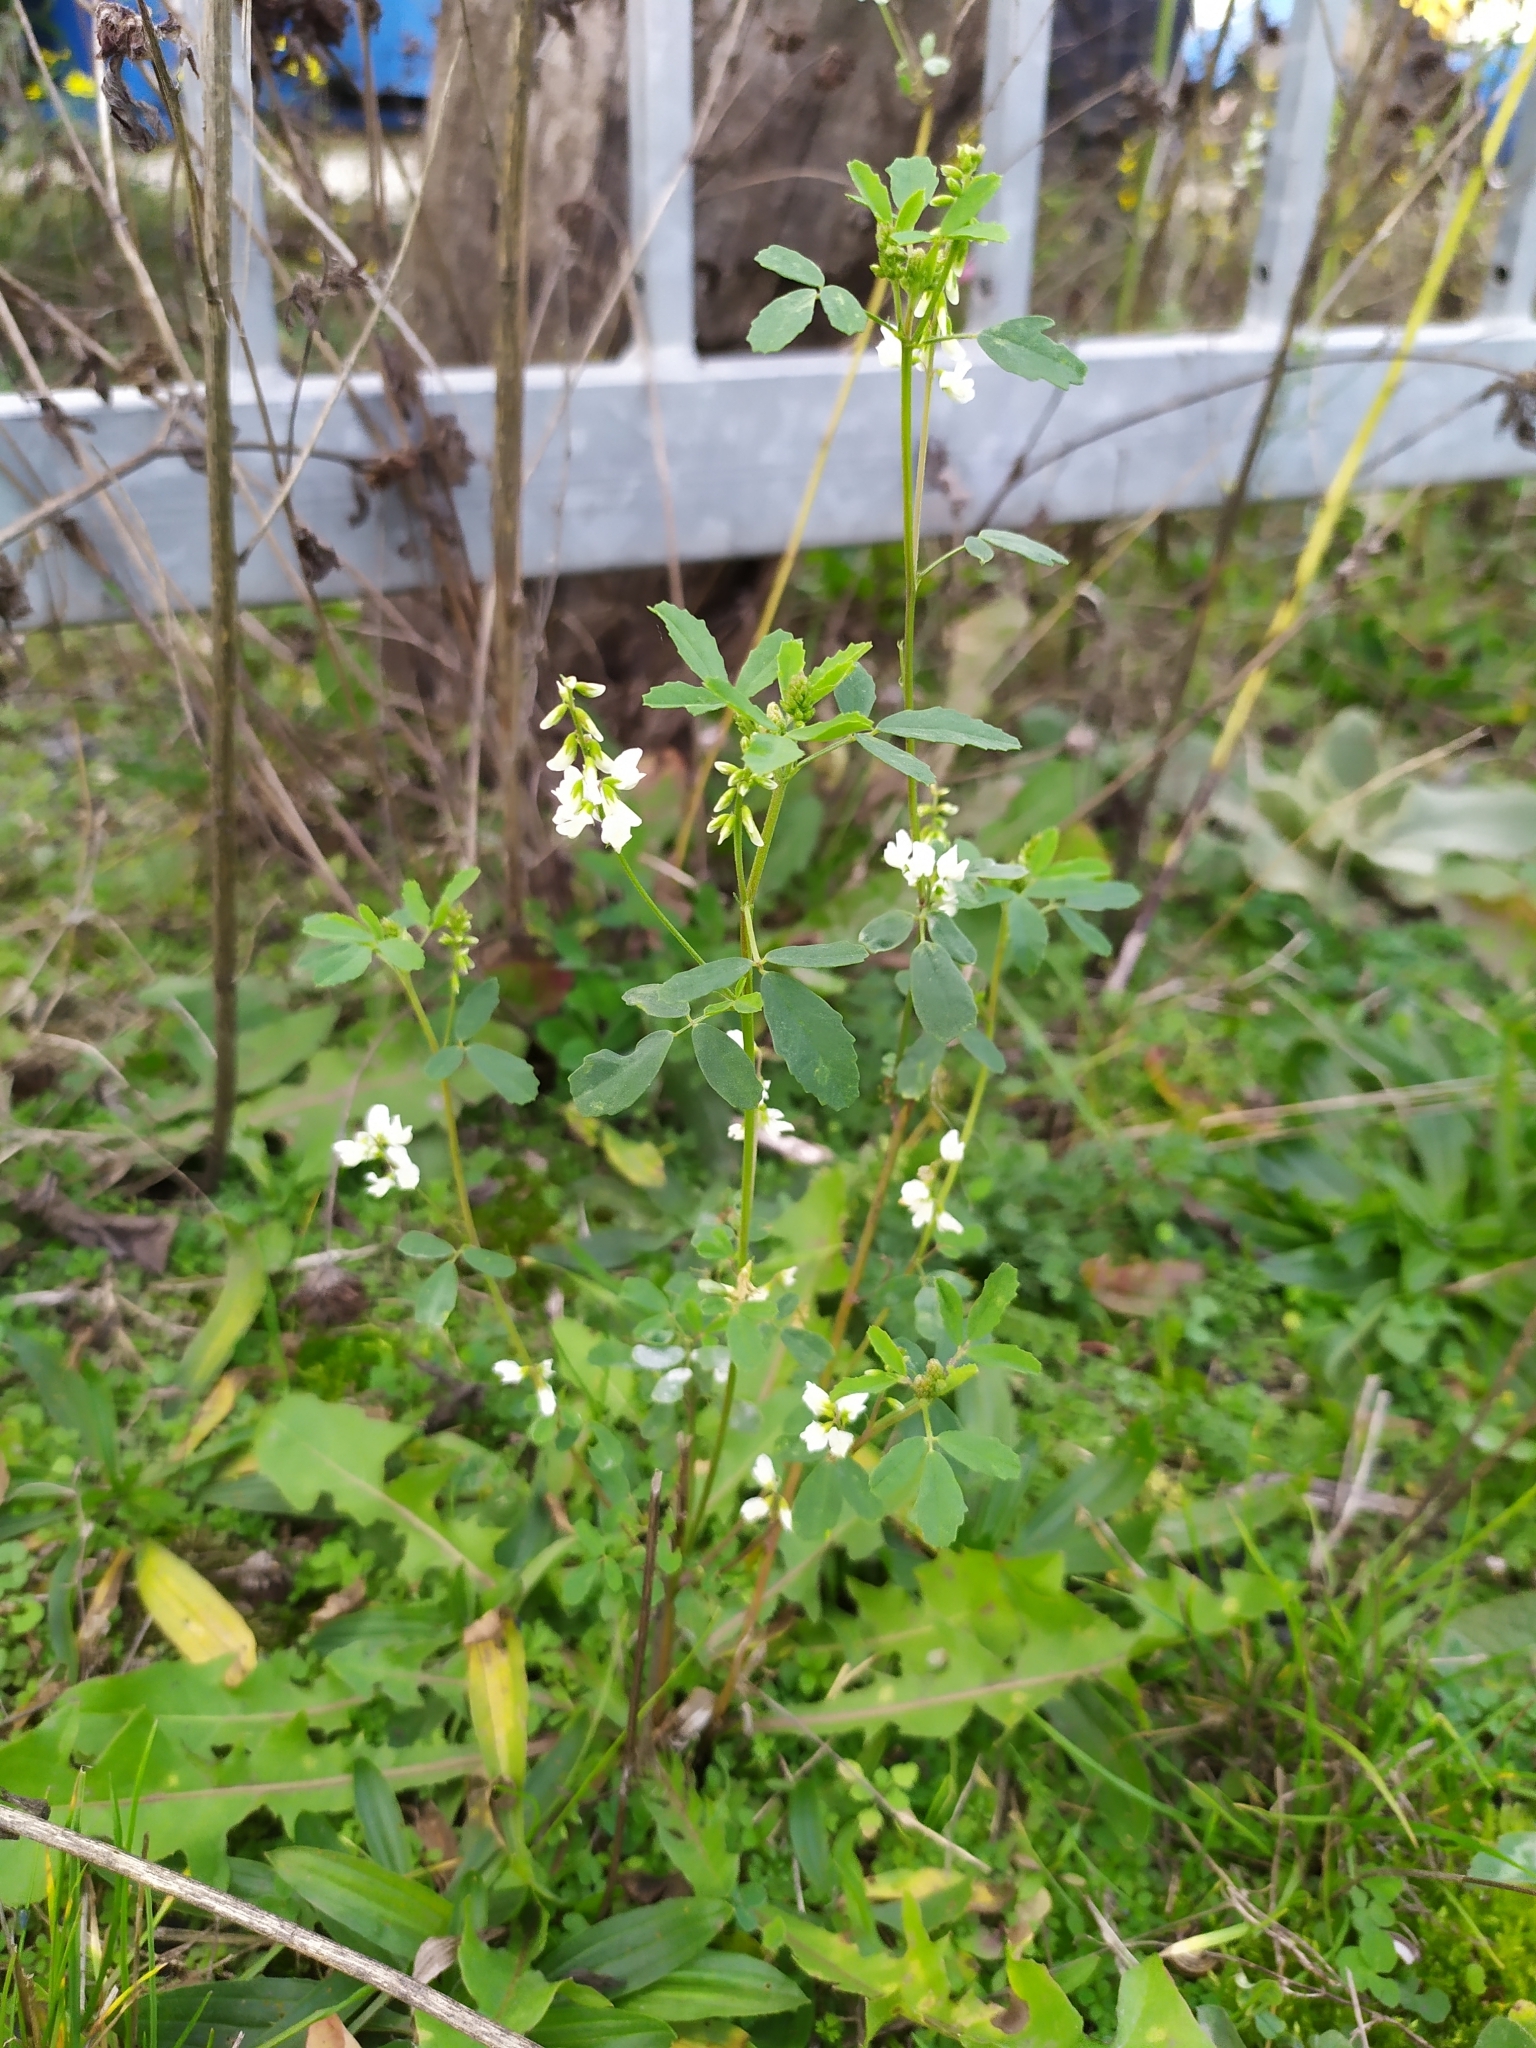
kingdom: Plantae
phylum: Tracheophyta
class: Magnoliopsida
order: Fabales
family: Fabaceae
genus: Melilotus
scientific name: Melilotus albus
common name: White melilot
